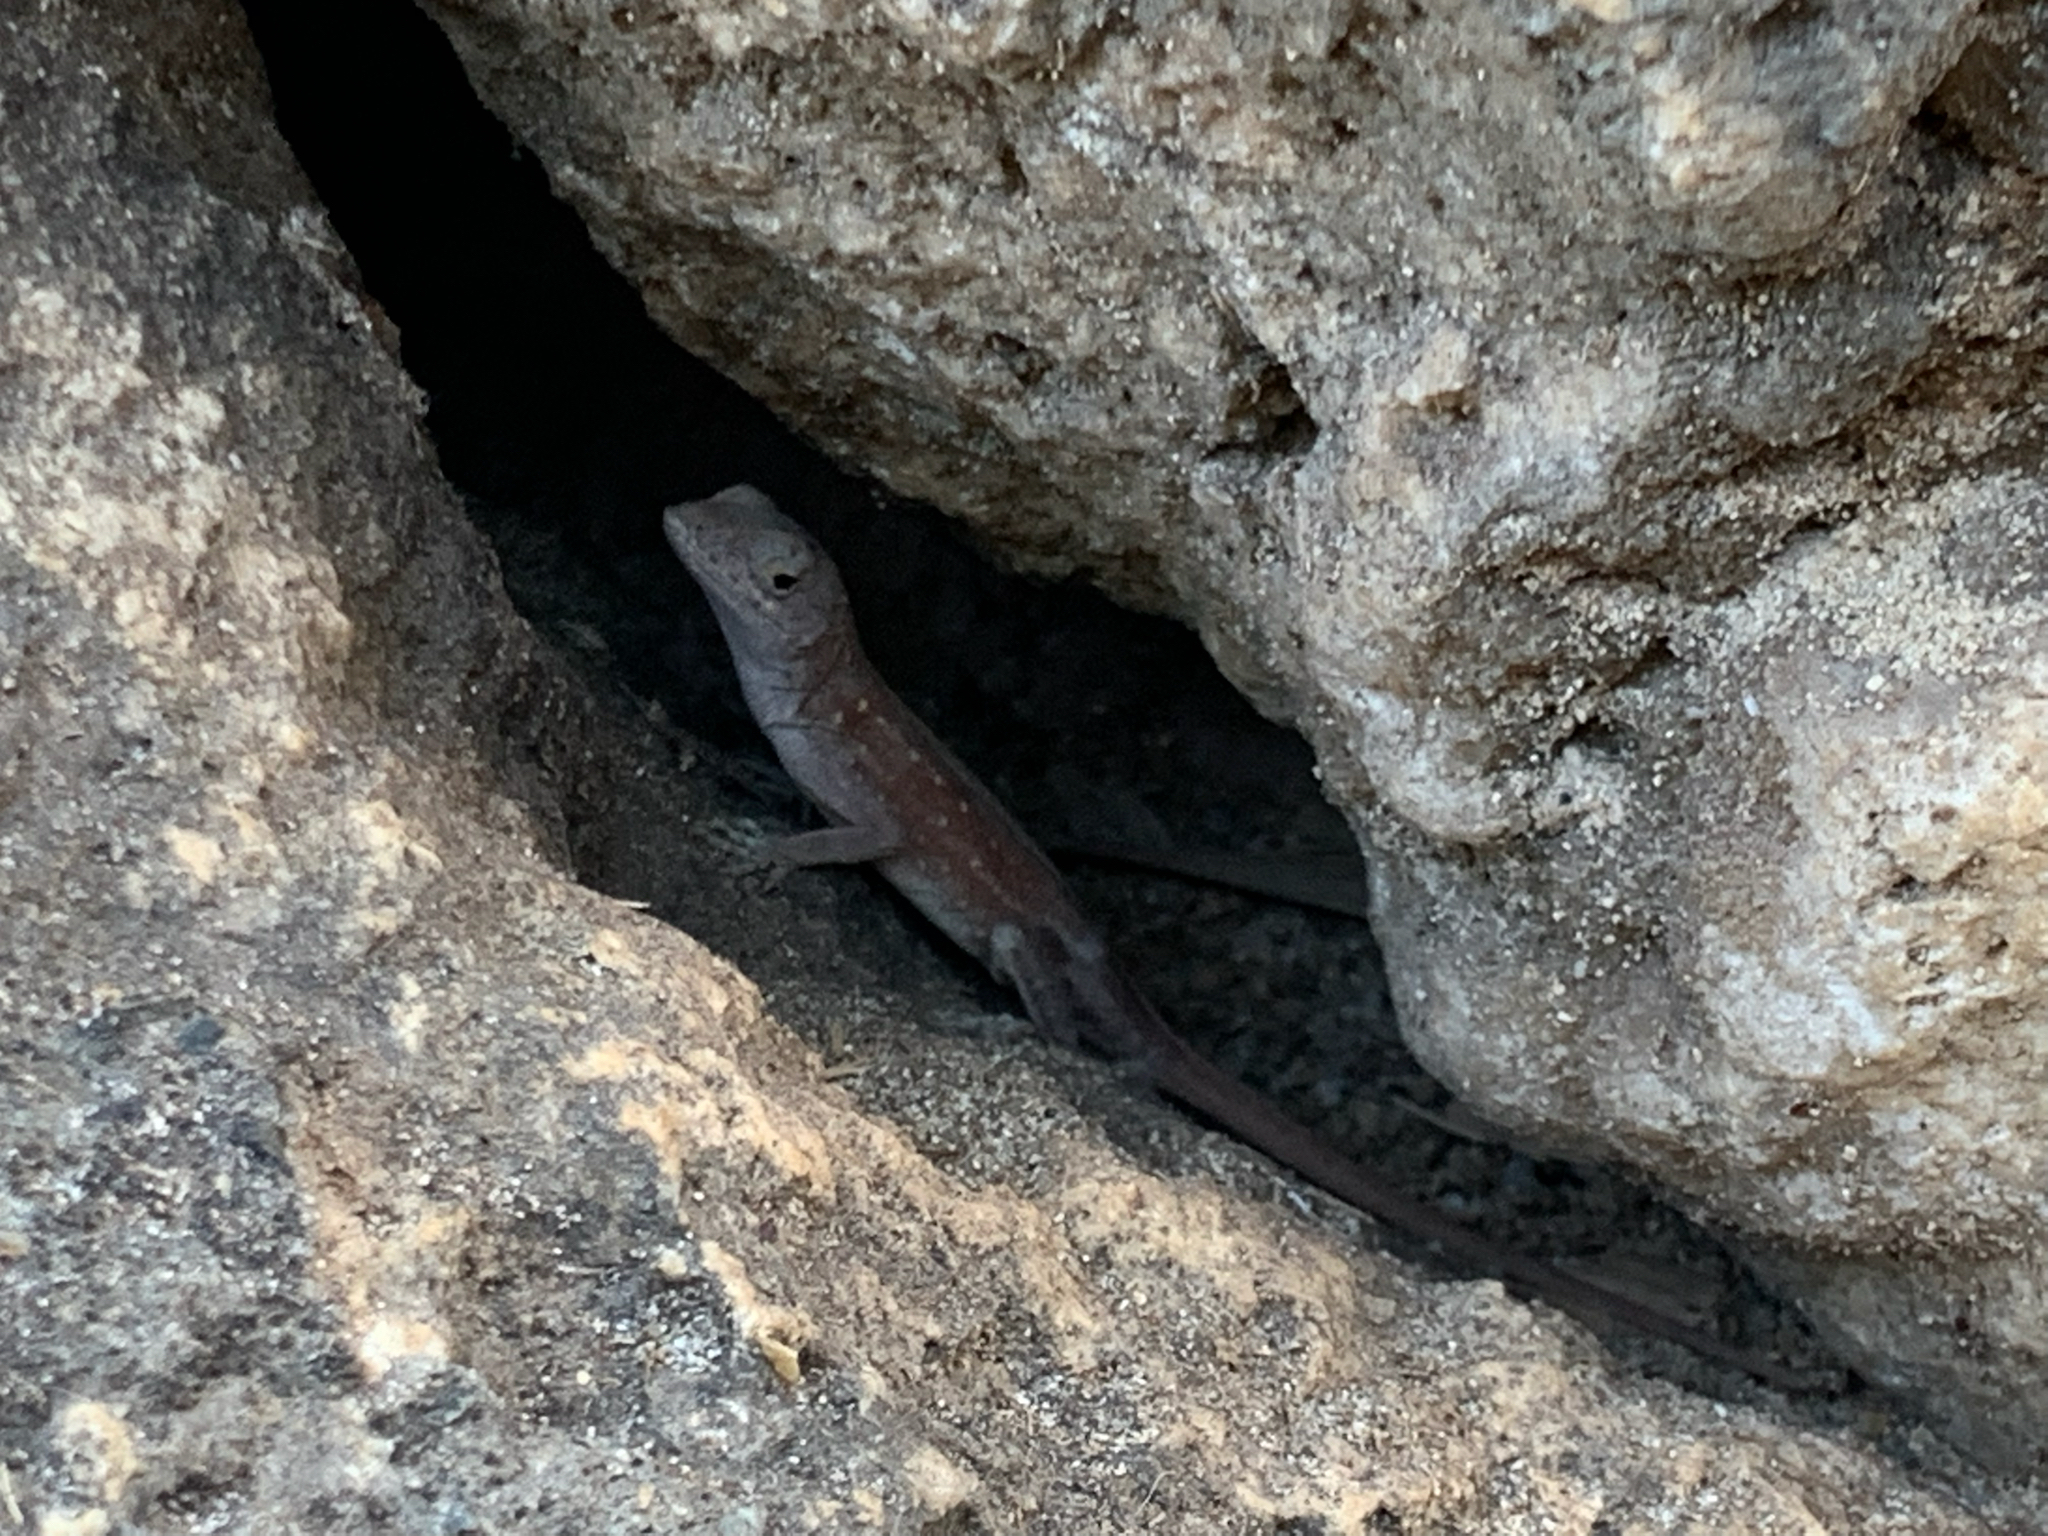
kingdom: Animalia
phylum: Chordata
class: Squamata
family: Dactyloidae
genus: Anolis
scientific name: Anolis sagrei
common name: Brown anole
